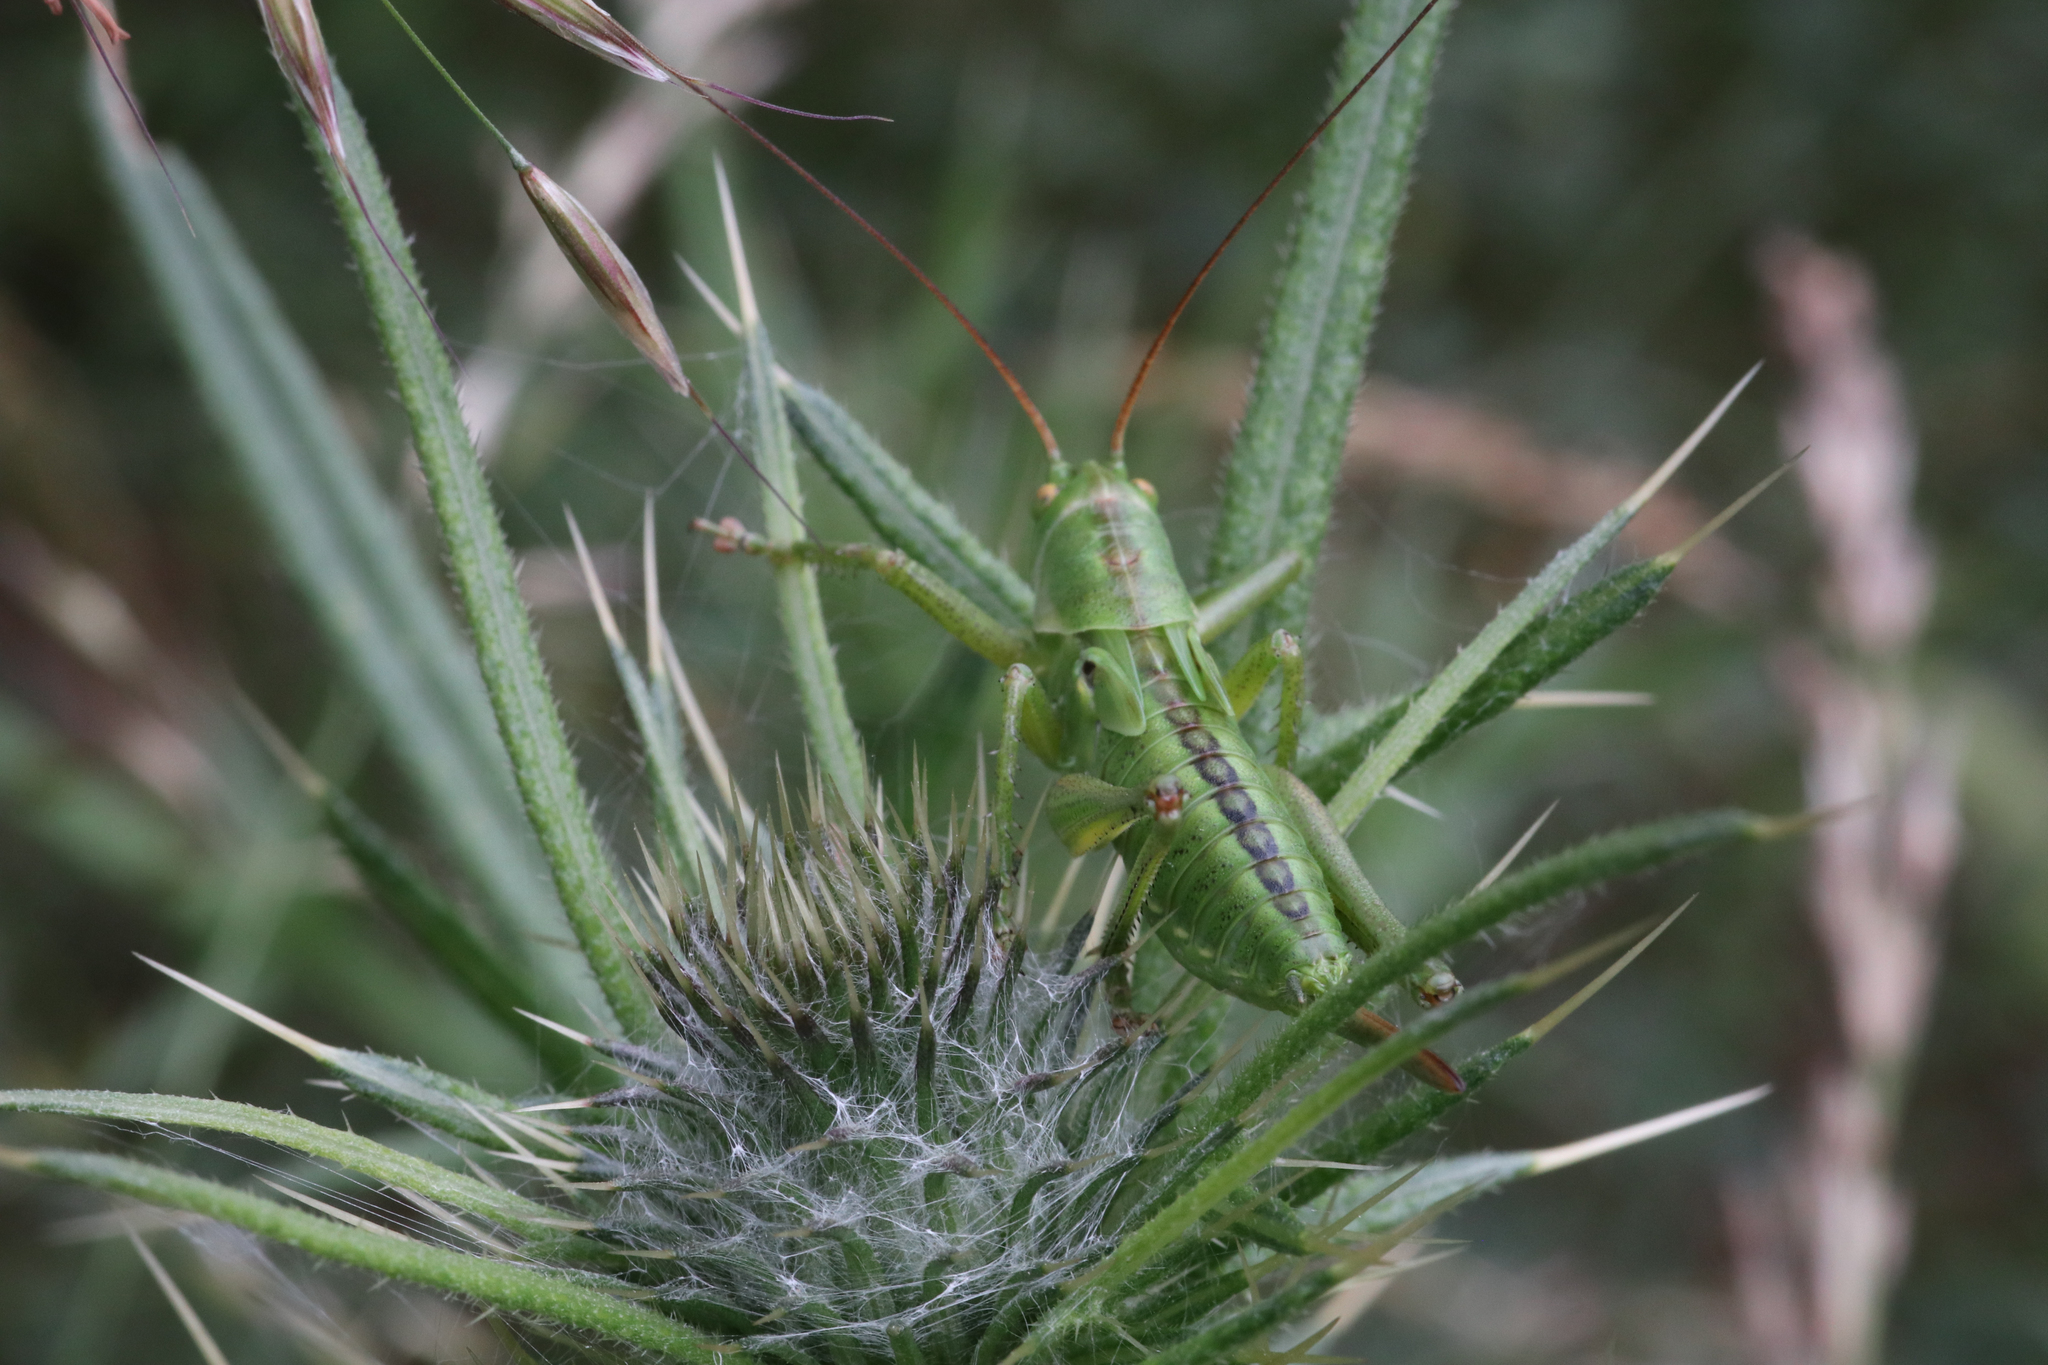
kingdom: Animalia
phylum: Arthropoda
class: Insecta
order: Orthoptera
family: Tettigoniidae
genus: Tettigonia
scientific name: Tettigonia viridissima
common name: Great green bush-cricket
